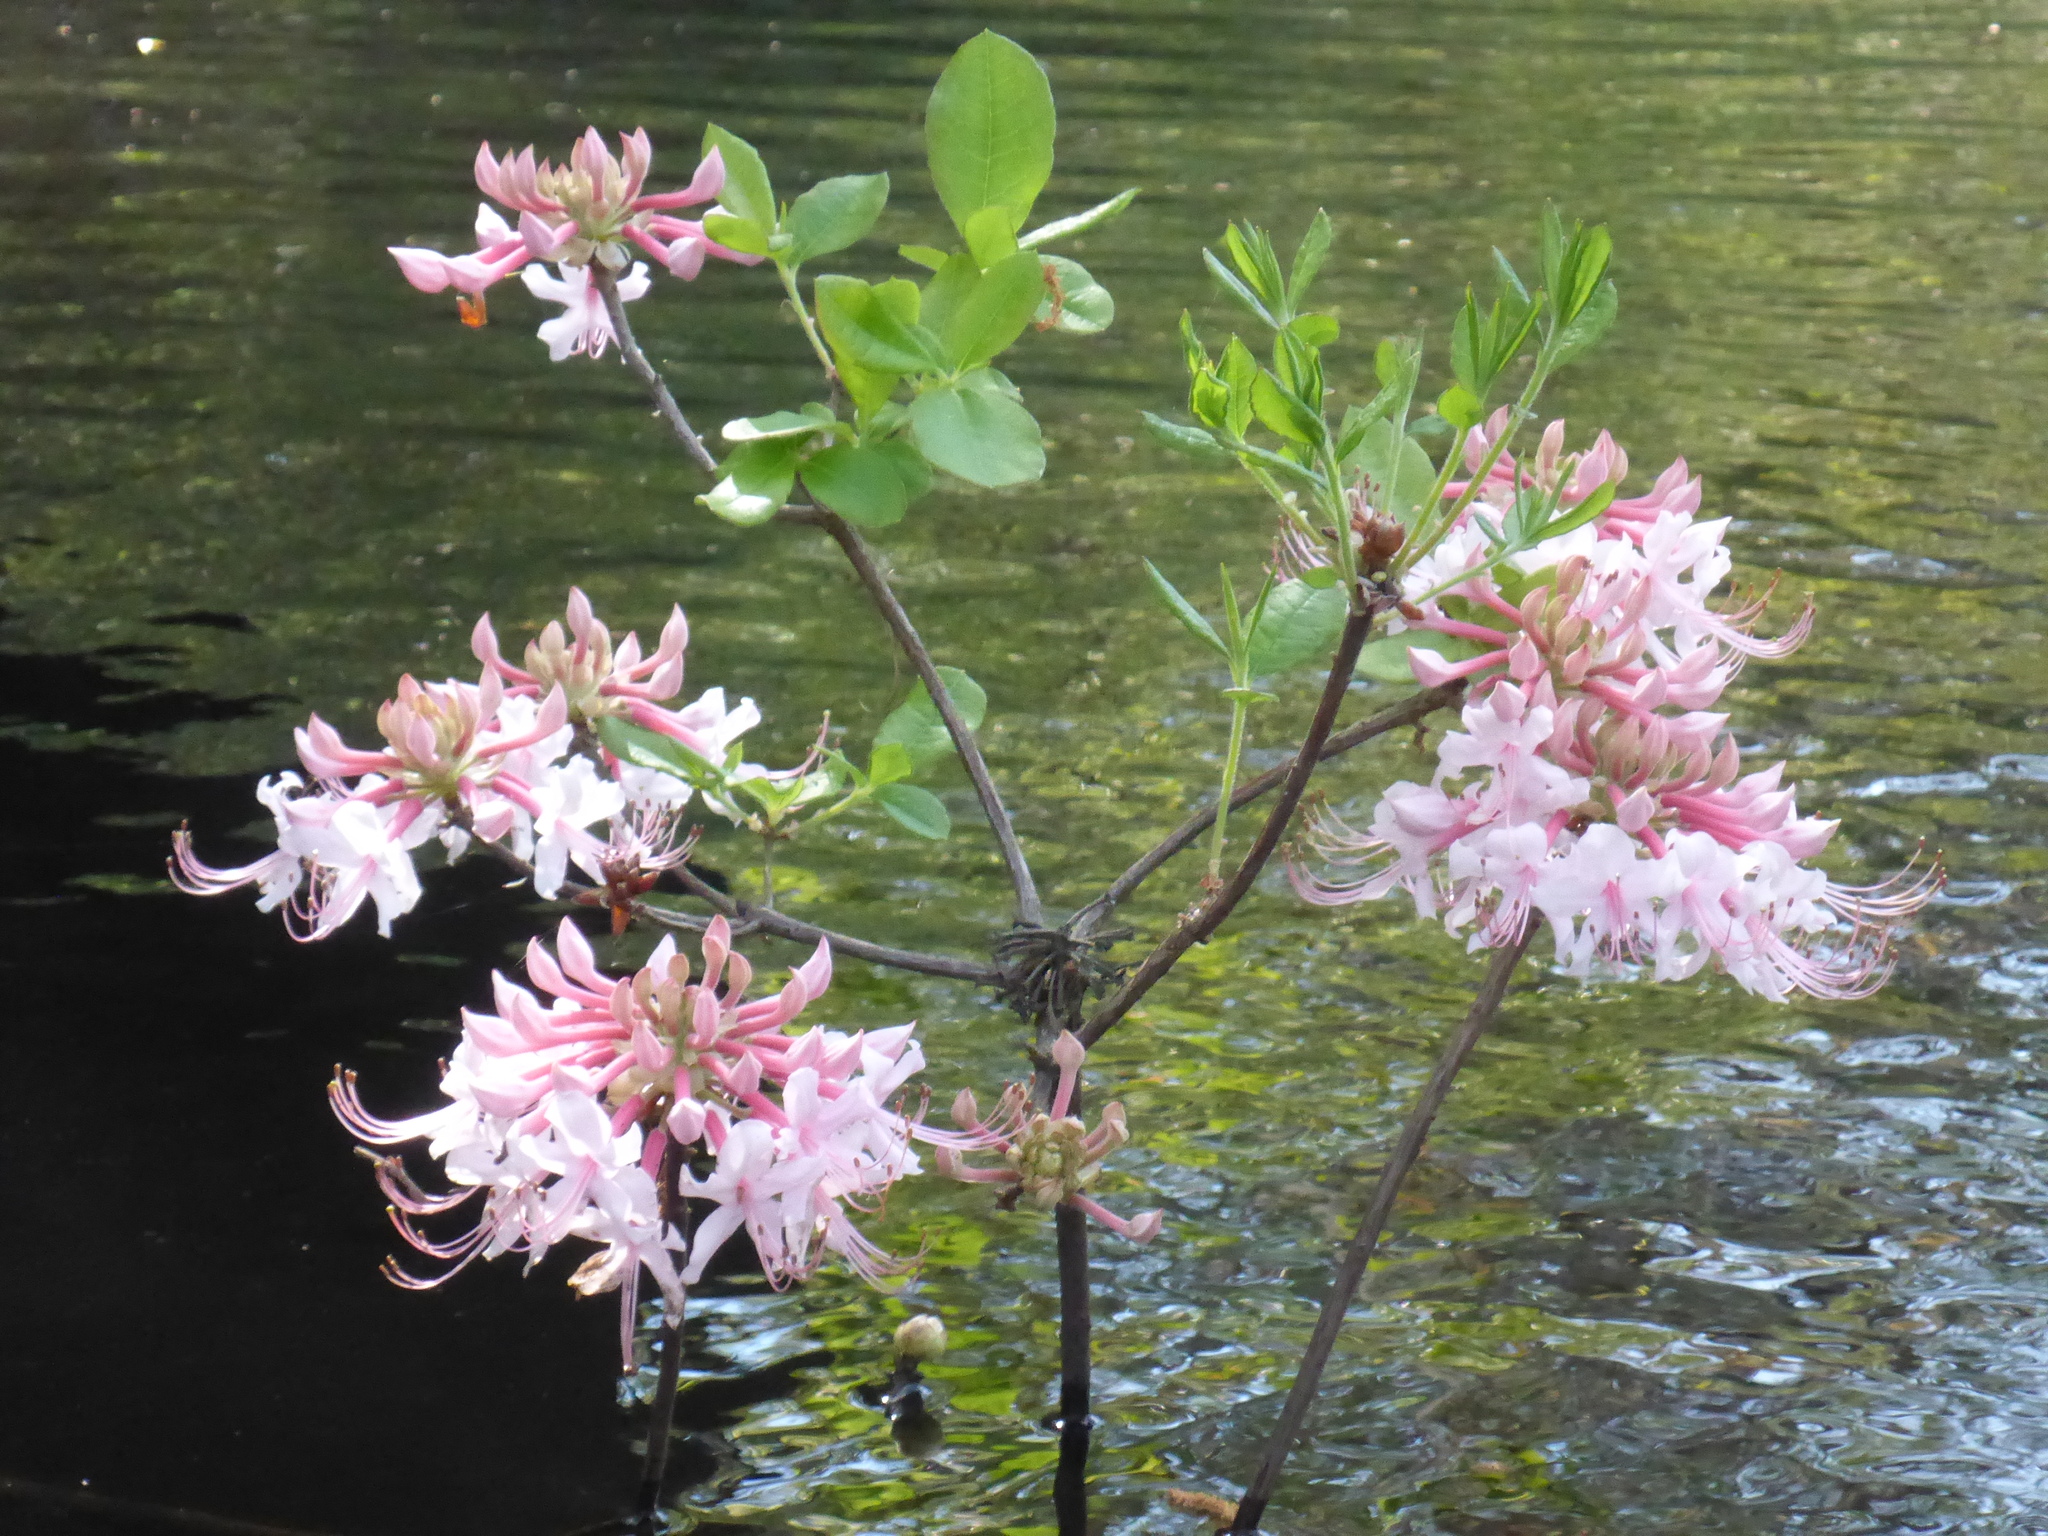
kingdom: Plantae
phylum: Tracheophyta
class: Magnoliopsida
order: Ericales
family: Ericaceae
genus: Rhododendron
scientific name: Rhododendron canescens
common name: Mountain azalea
